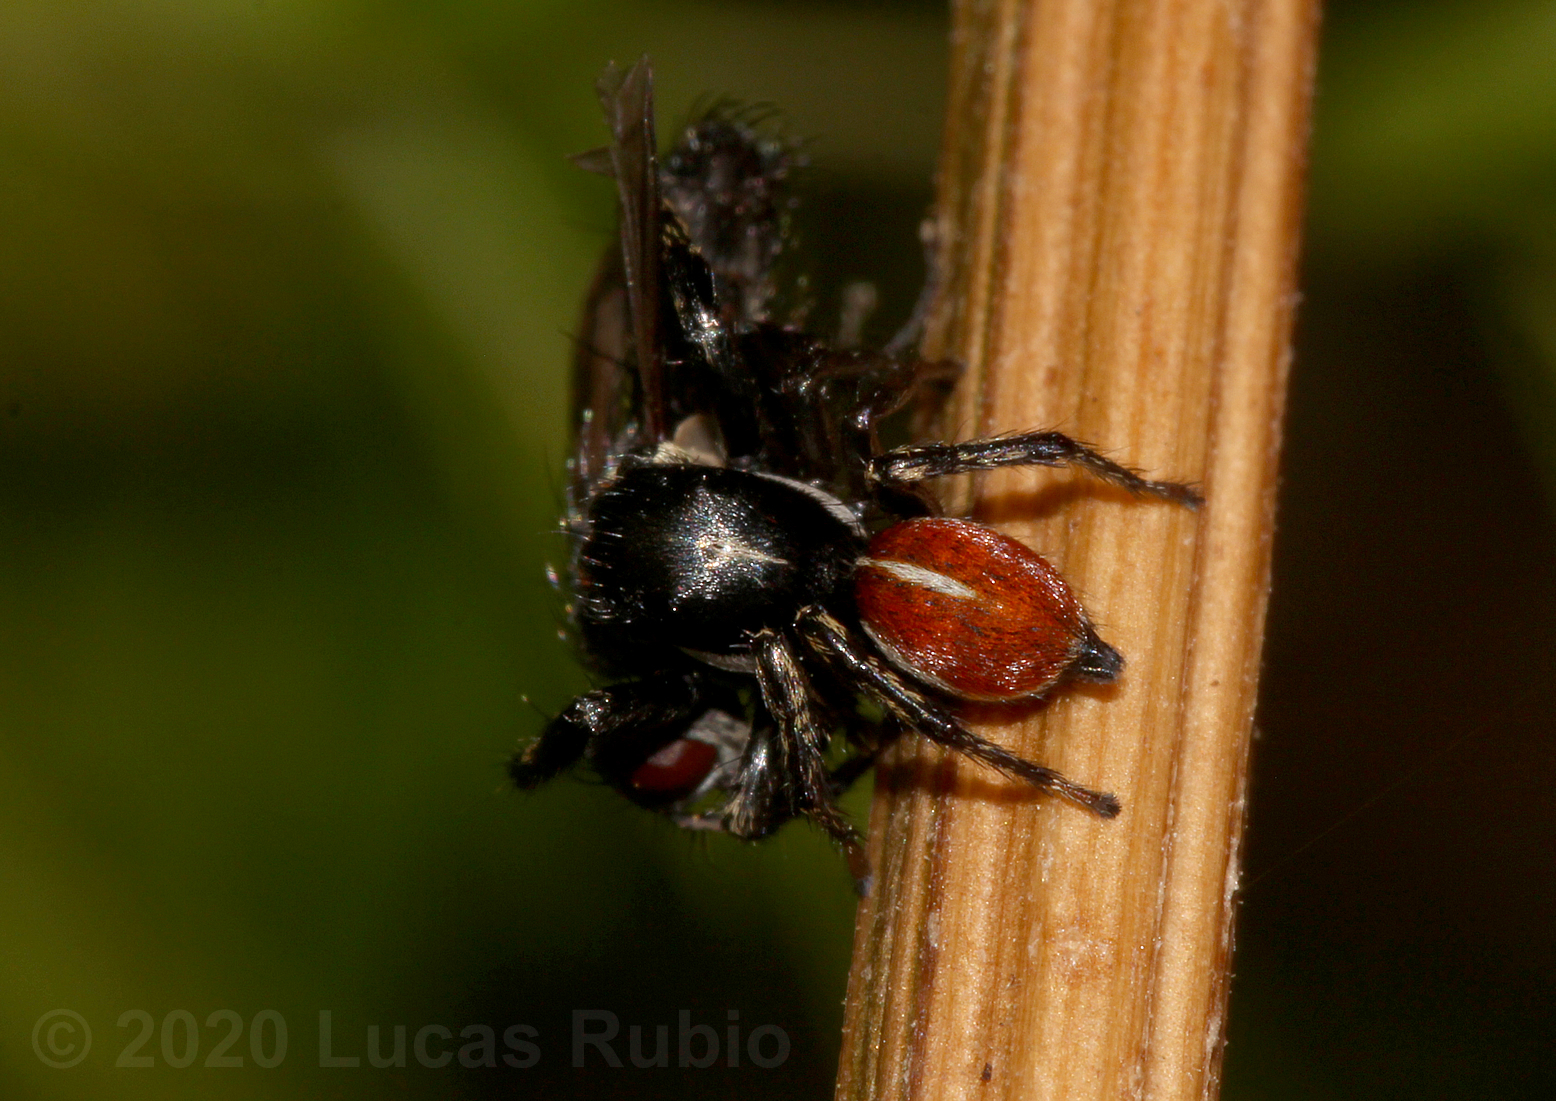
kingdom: Animalia
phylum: Arthropoda
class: Arachnida
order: Araneae
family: Salticidae
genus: Phiale
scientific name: Phiale roburifoliata
